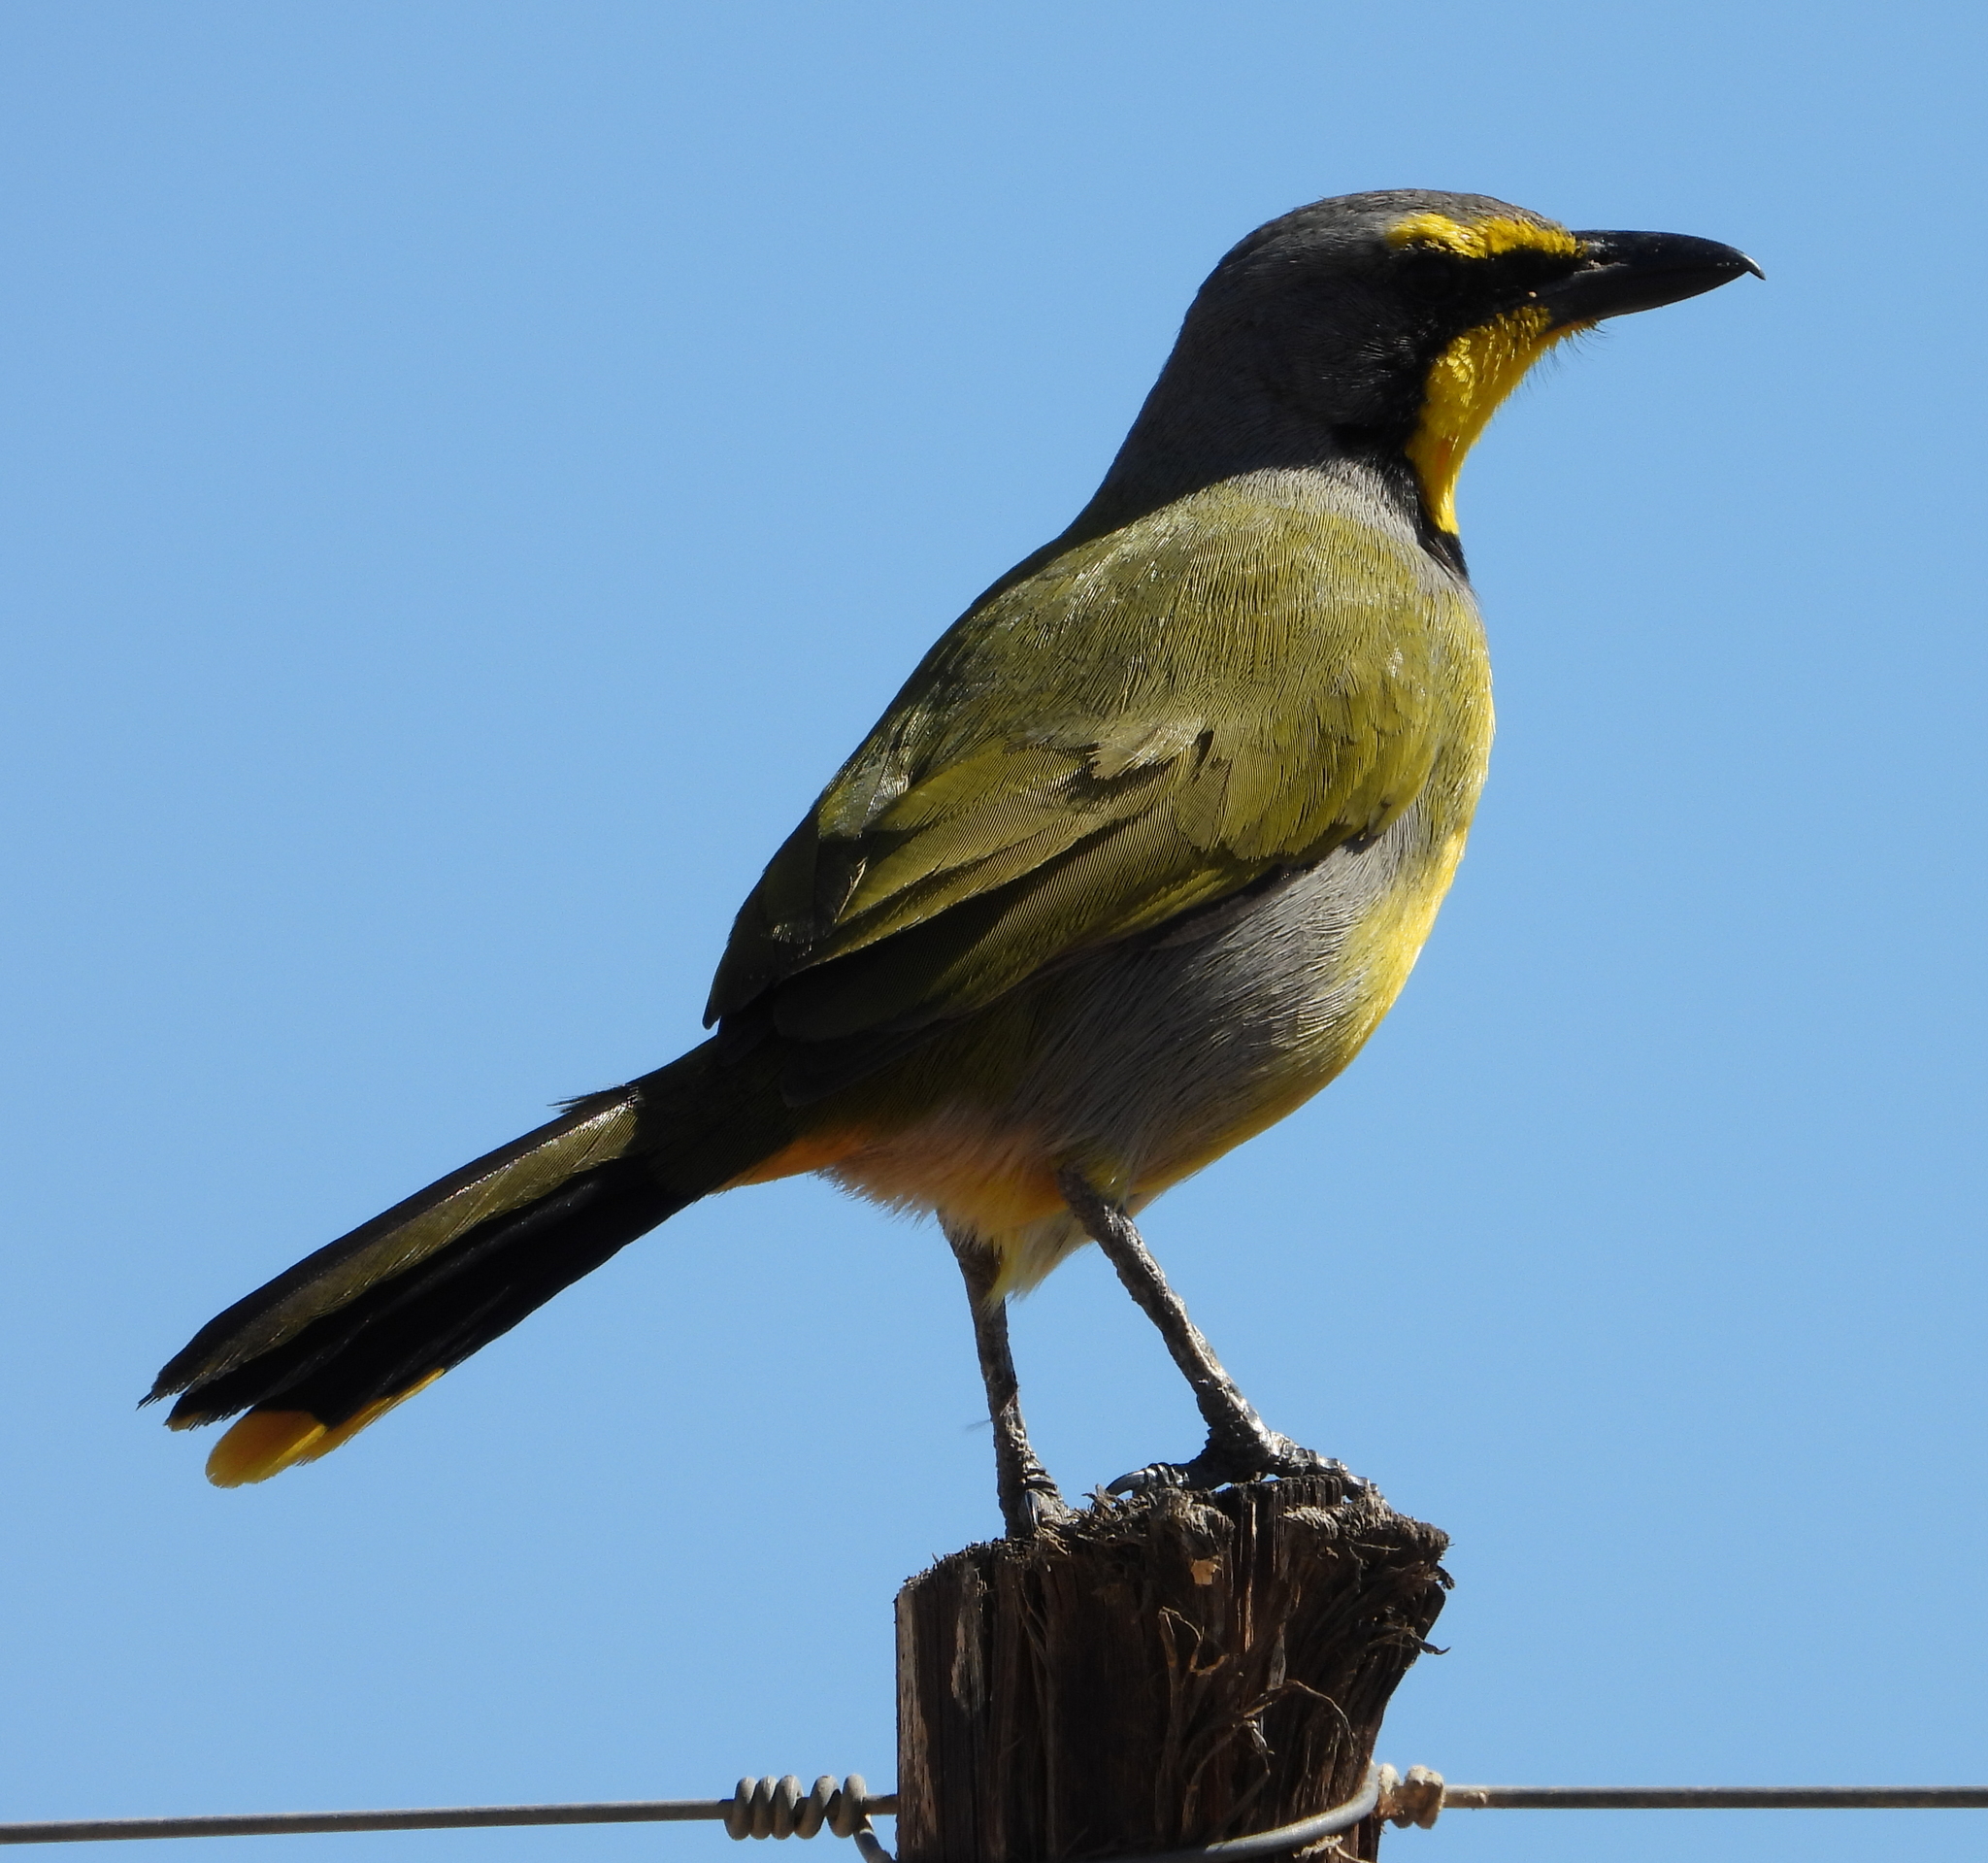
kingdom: Animalia
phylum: Chordata
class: Aves
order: Passeriformes
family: Malaconotidae
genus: Telophorus
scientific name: Telophorus zeylonus
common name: Bokmakierie
